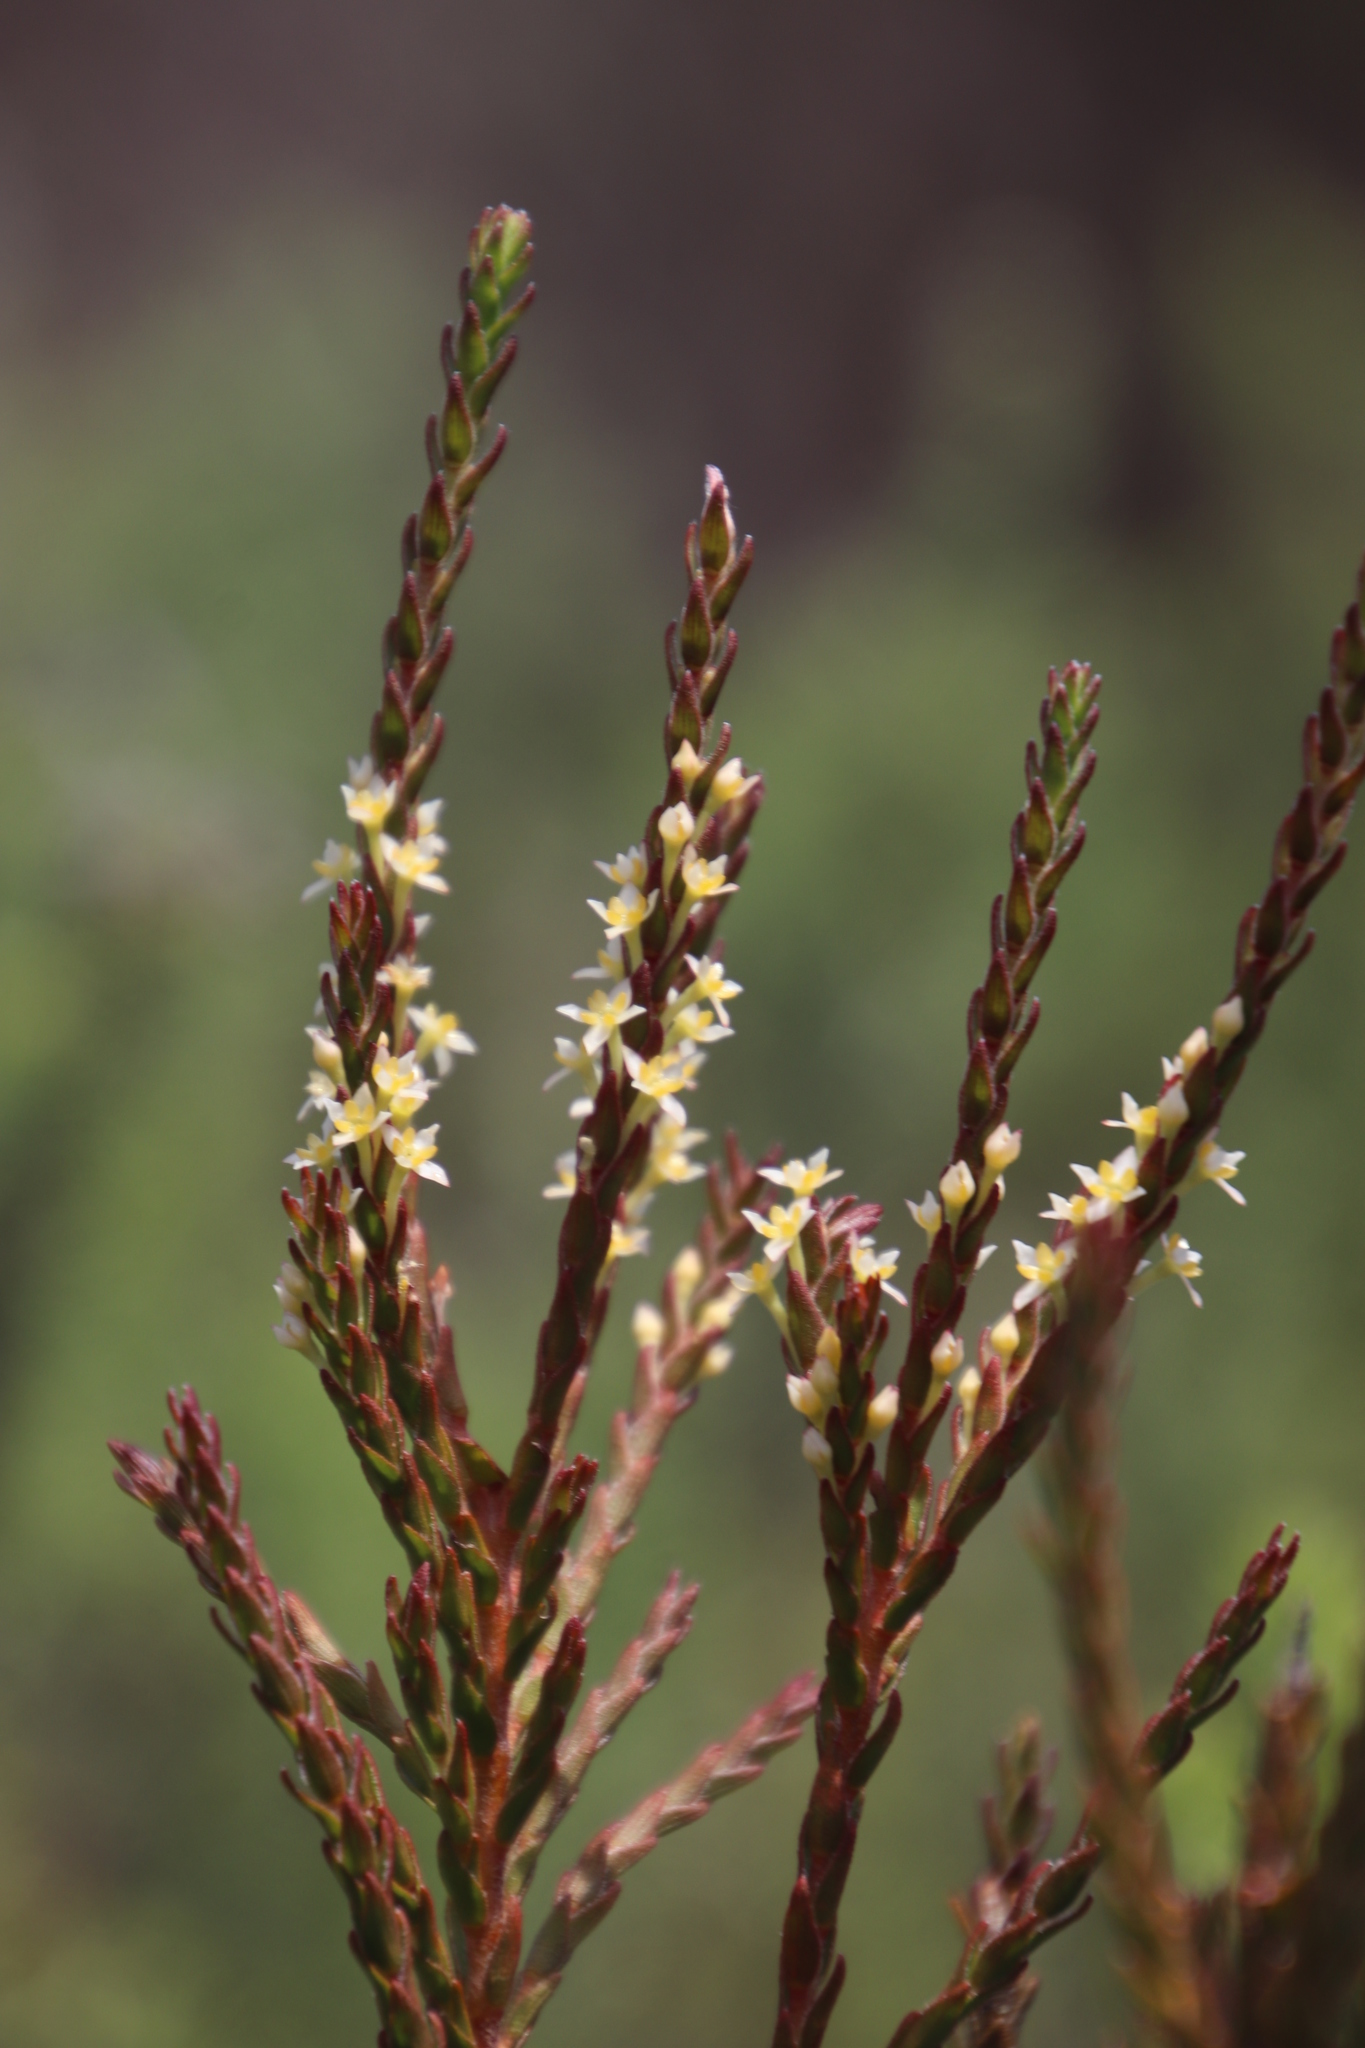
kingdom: Plantae
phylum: Tracheophyta
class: Magnoliopsida
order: Malvales
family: Thymelaeaceae
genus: Struthiola
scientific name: Struthiola striata
